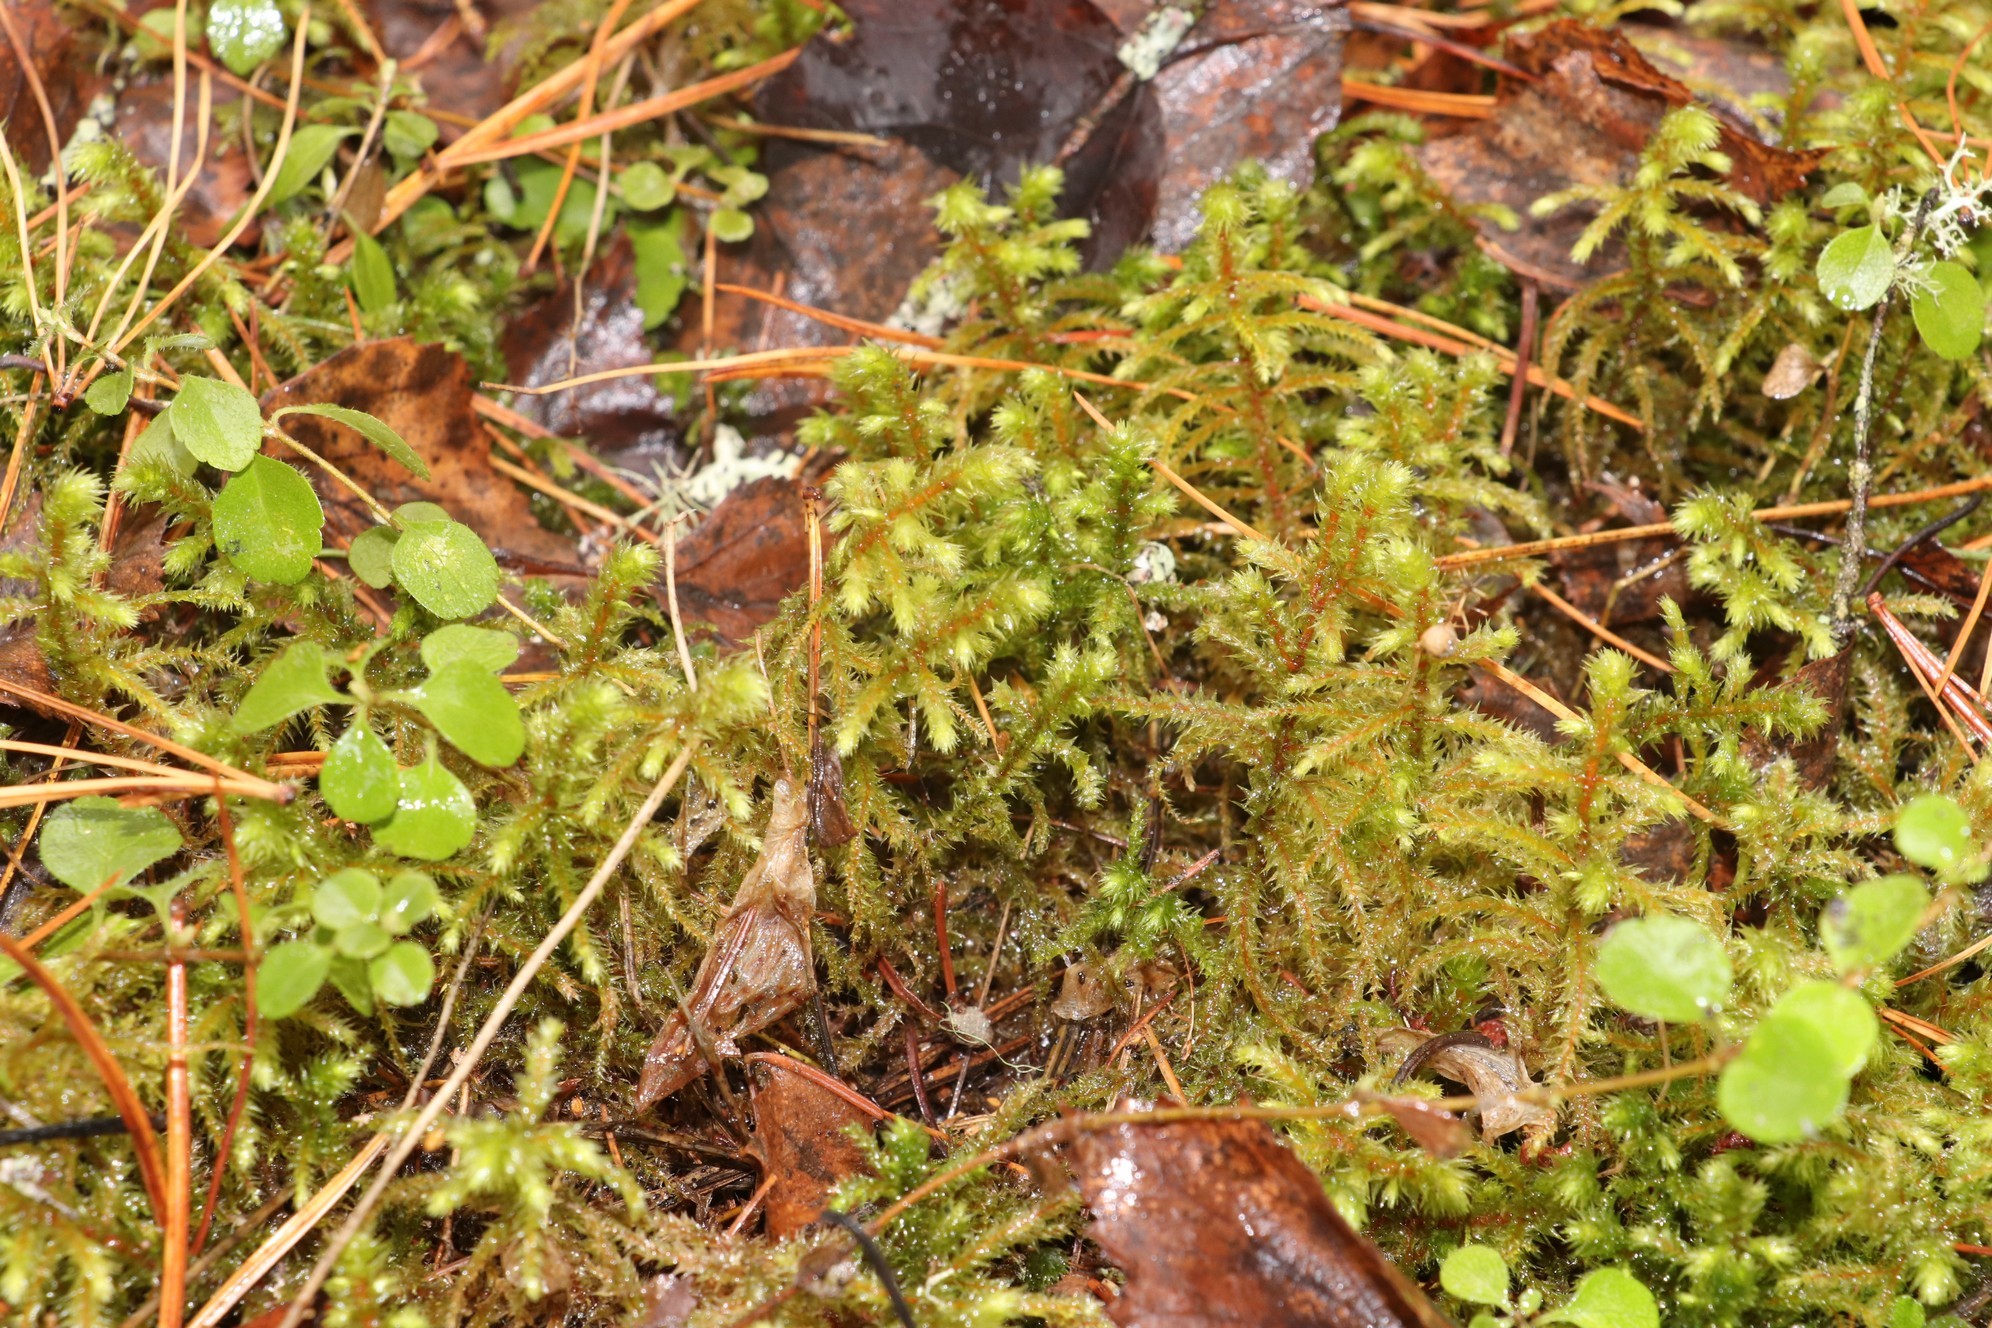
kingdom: Plantae
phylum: Bryophyta
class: Bryopsida
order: Hypnales
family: Hylocomiaceae
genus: Hylocomiadelphus
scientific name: Hylocomiadelphus triquetrus
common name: Rough goose neck moss
